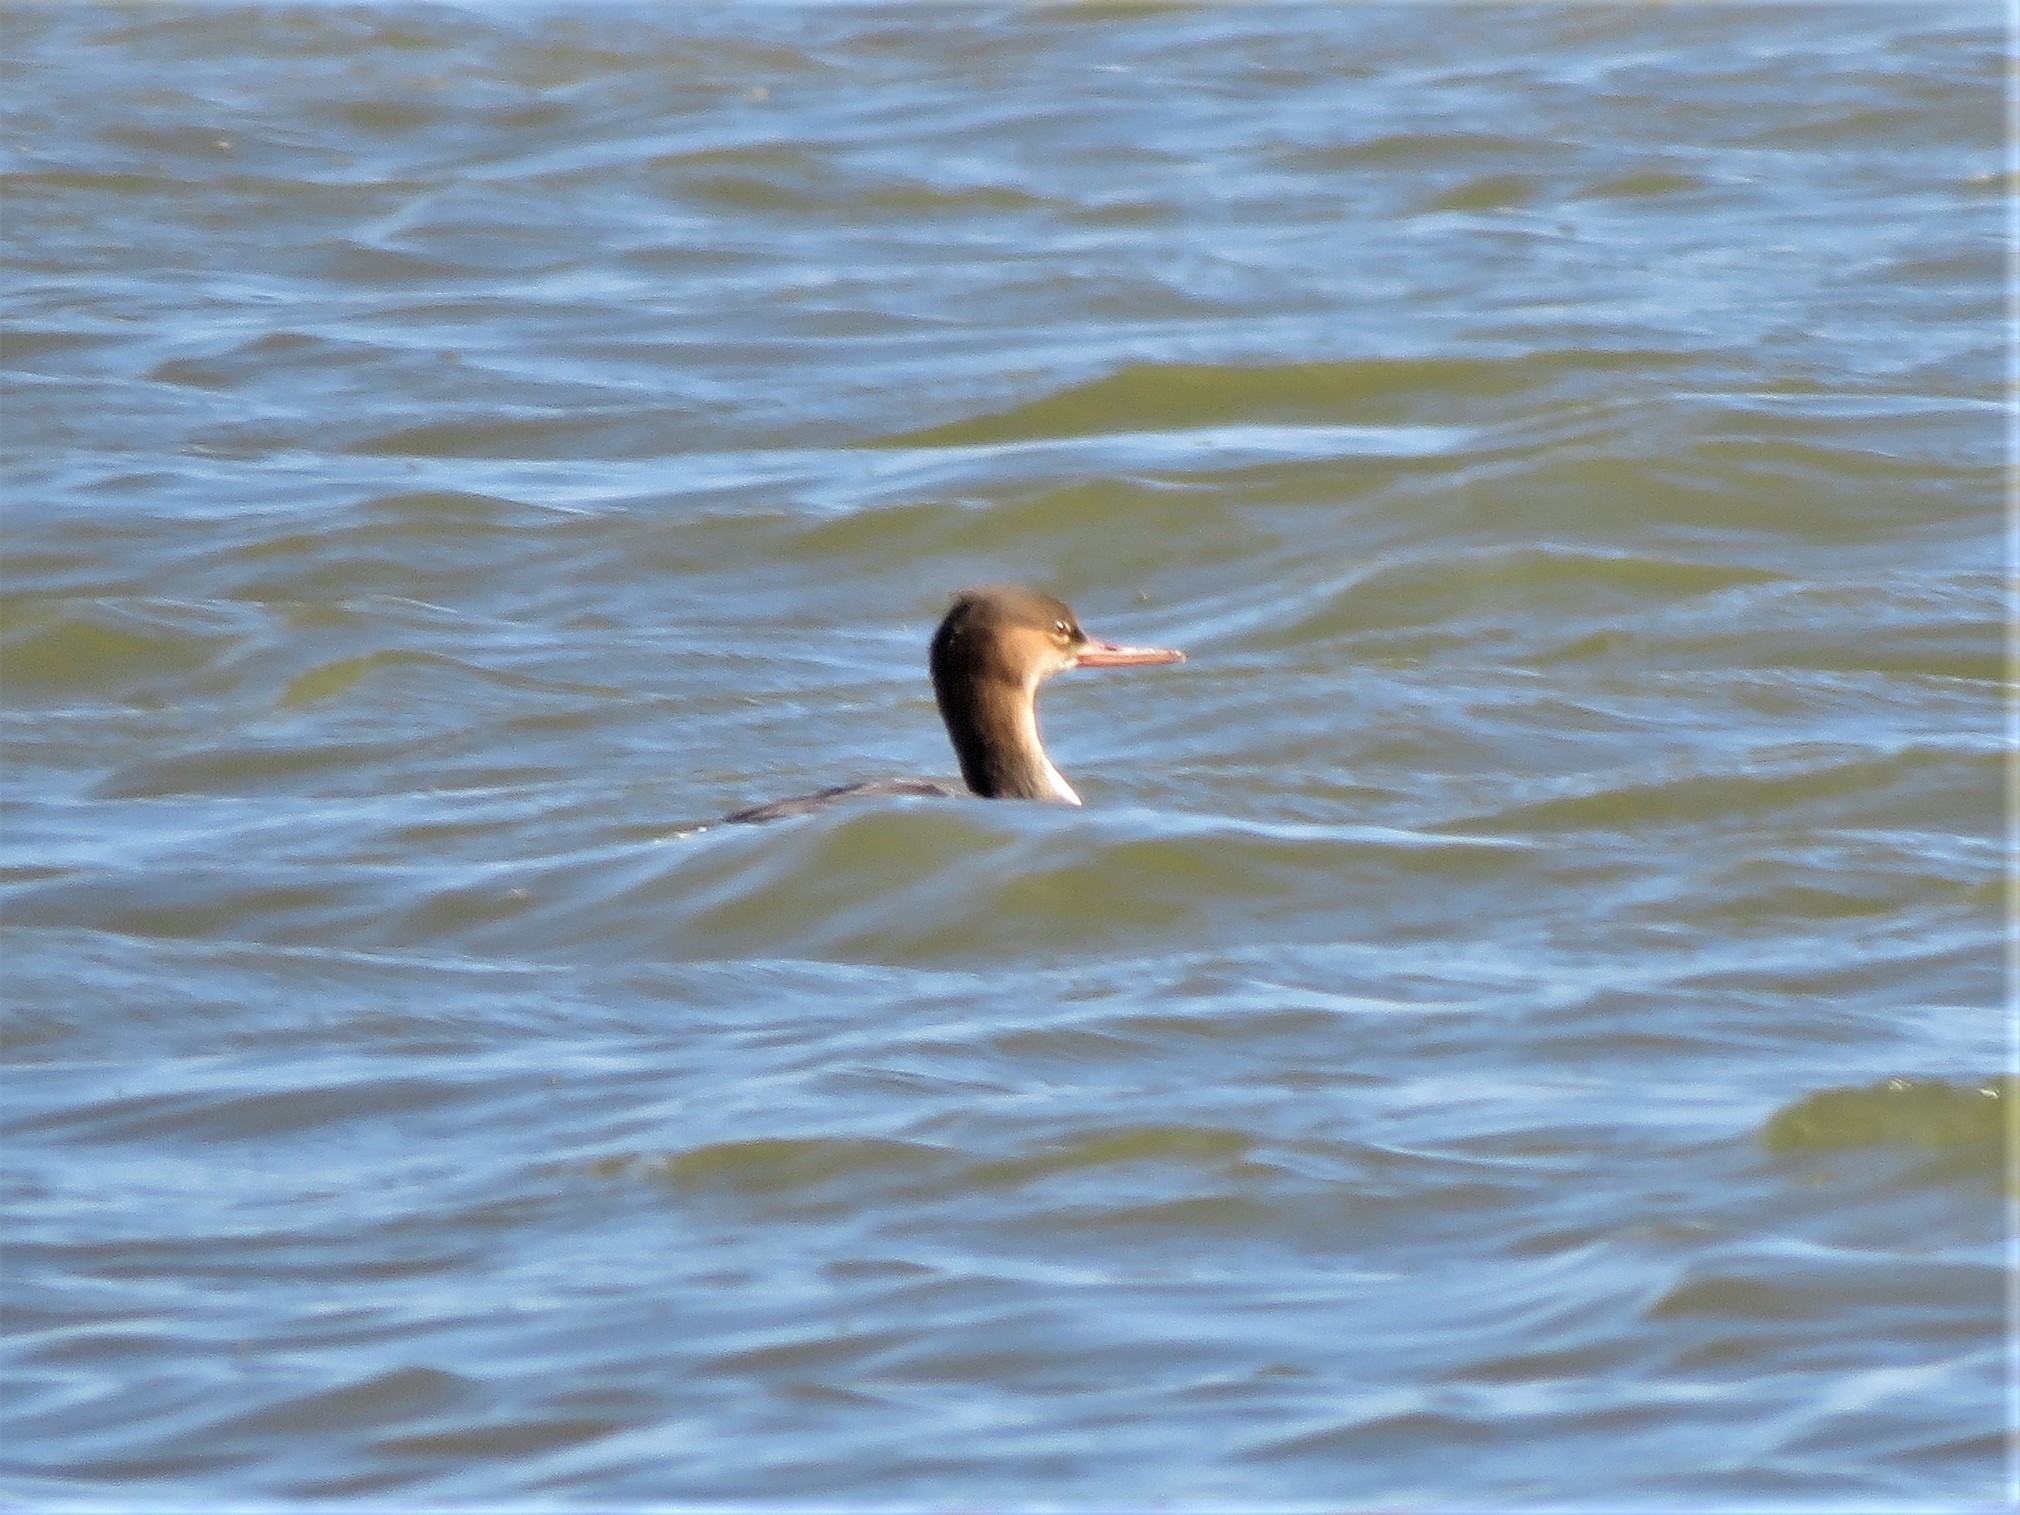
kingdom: Animalia
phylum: Chordata
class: Aves
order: Anseriformes
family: Anatidae
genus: Mergus
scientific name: Mergus serrator
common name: Red-breasted merganser
